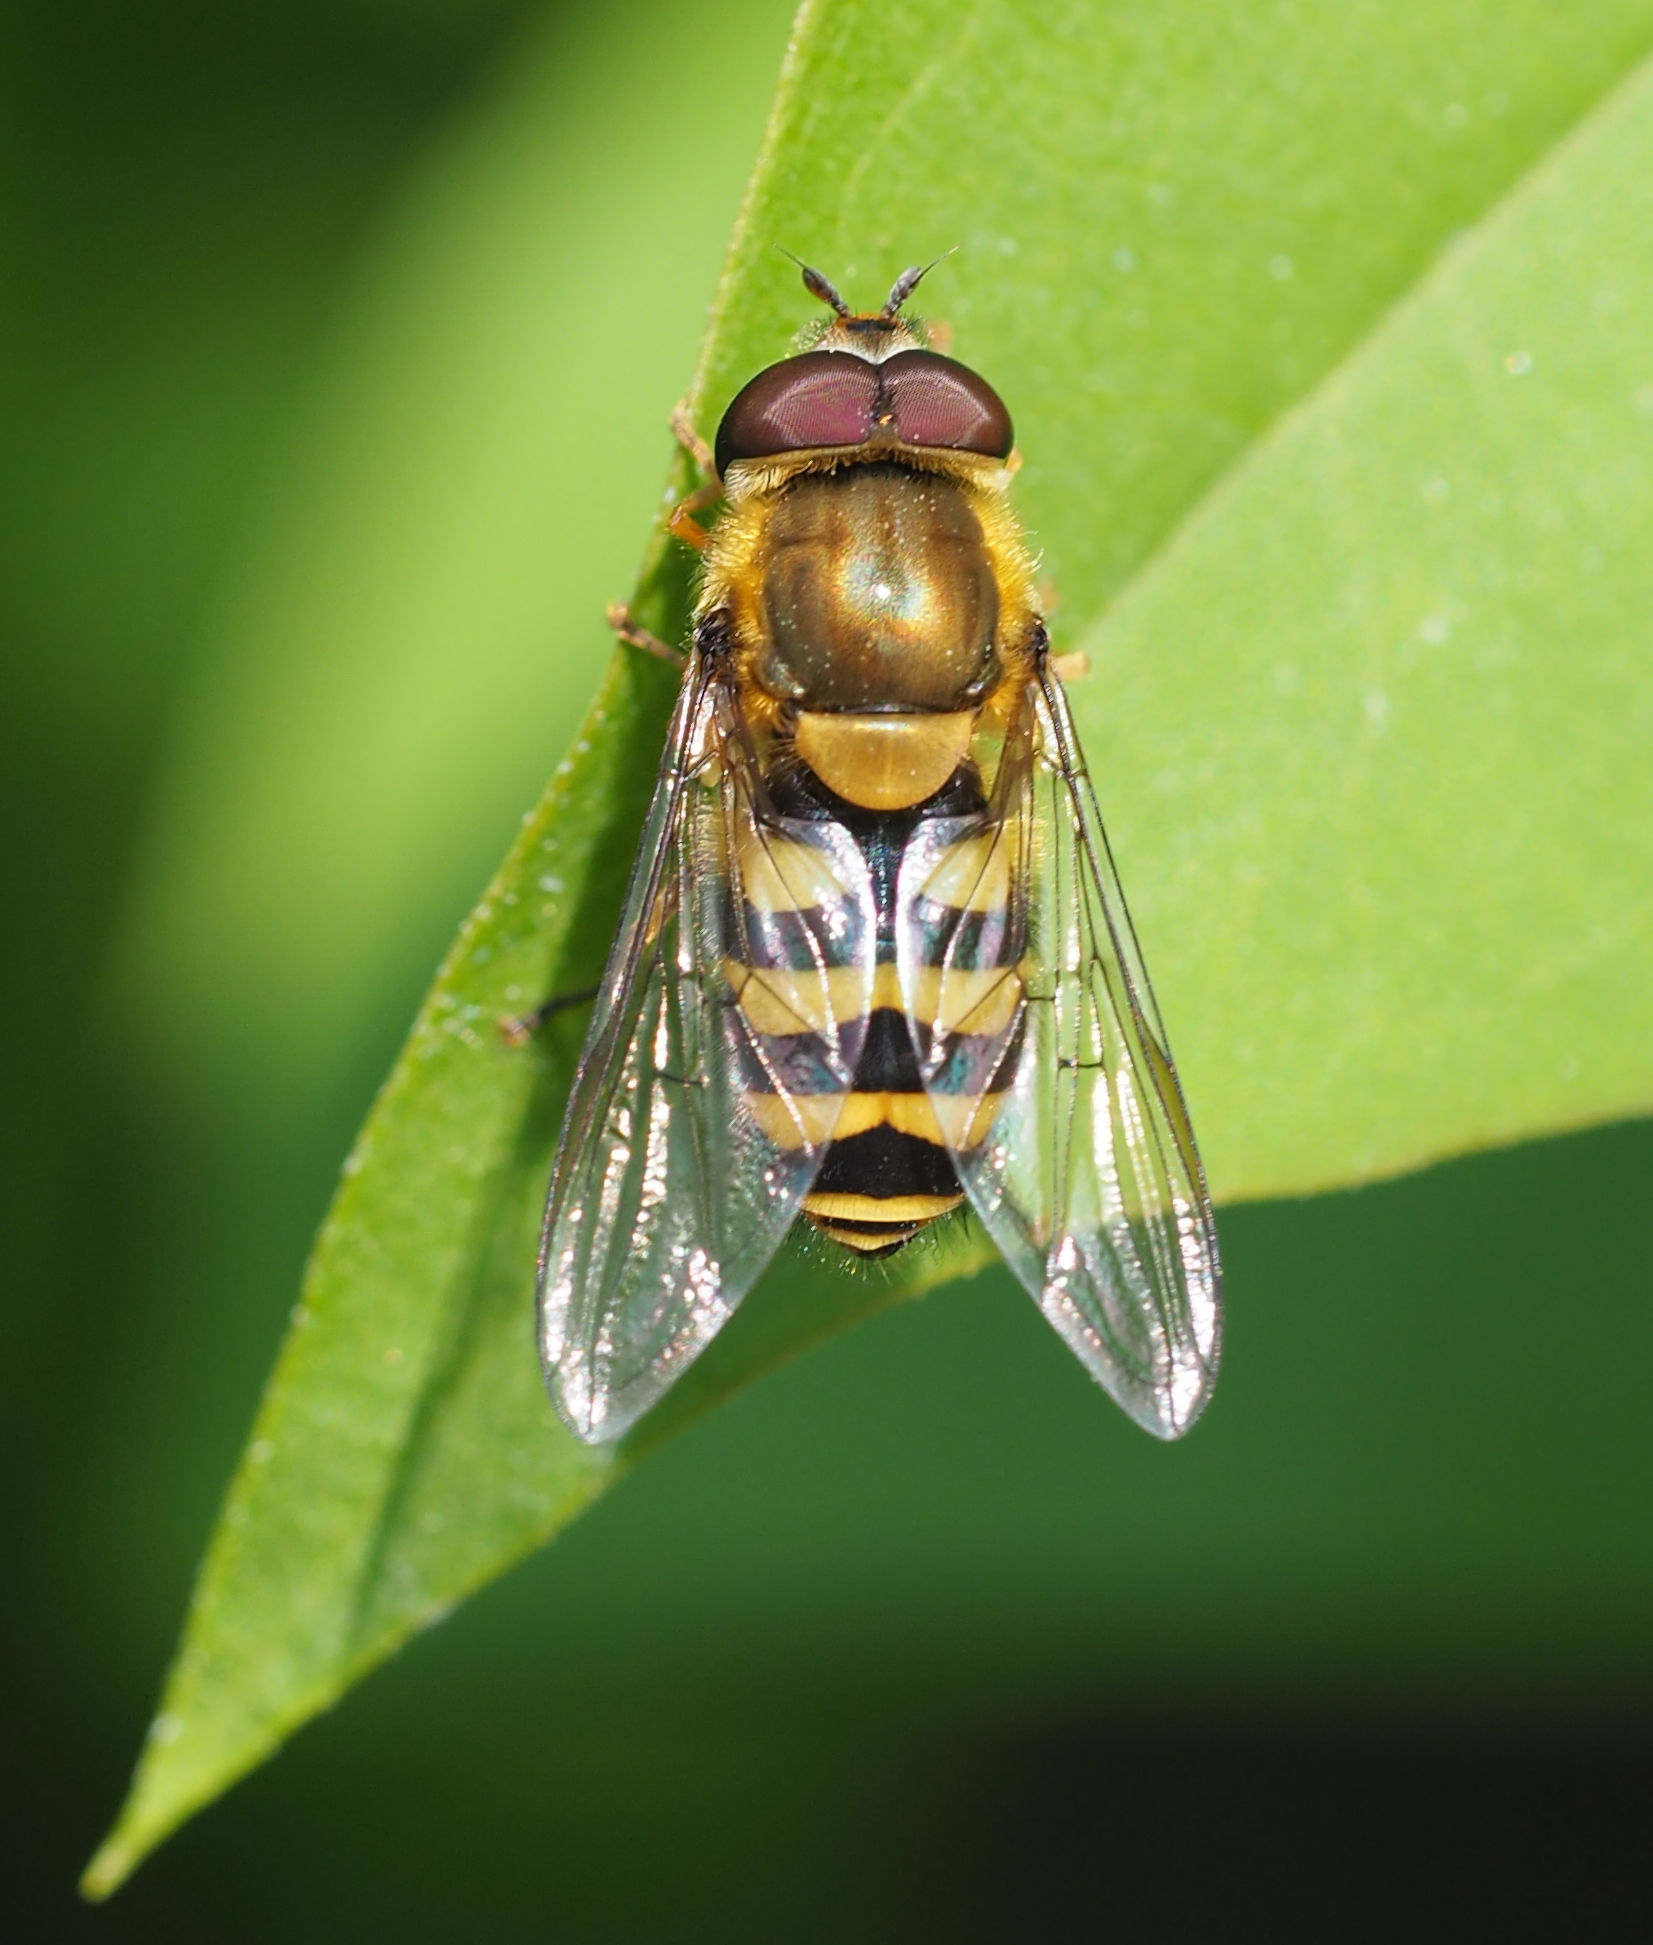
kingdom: Animalia
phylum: Arthropoda
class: Insecta
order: Diptera
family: Syrphidae
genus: Syrphus
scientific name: Syrphus
